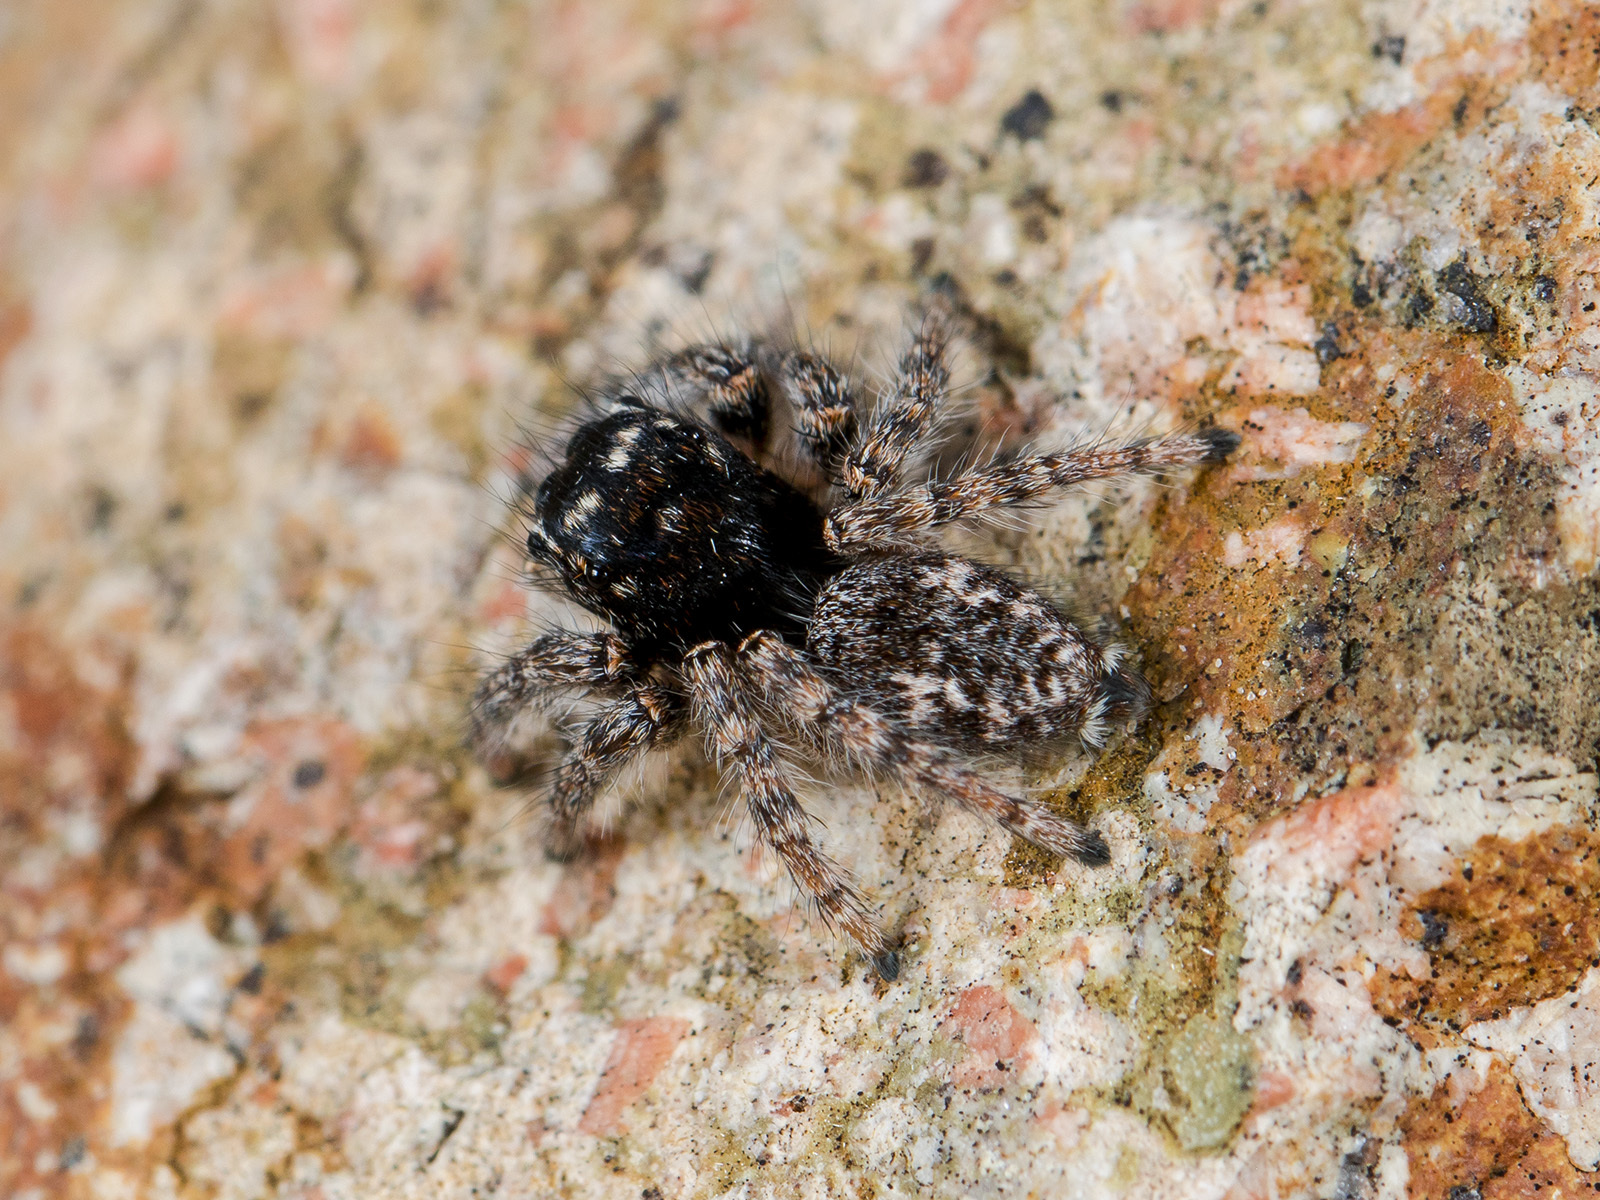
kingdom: Animalia
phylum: Arthropoda
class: Arachnida
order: Araneae
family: Salticidae
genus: Philaeus
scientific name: Philaeus chrysops
